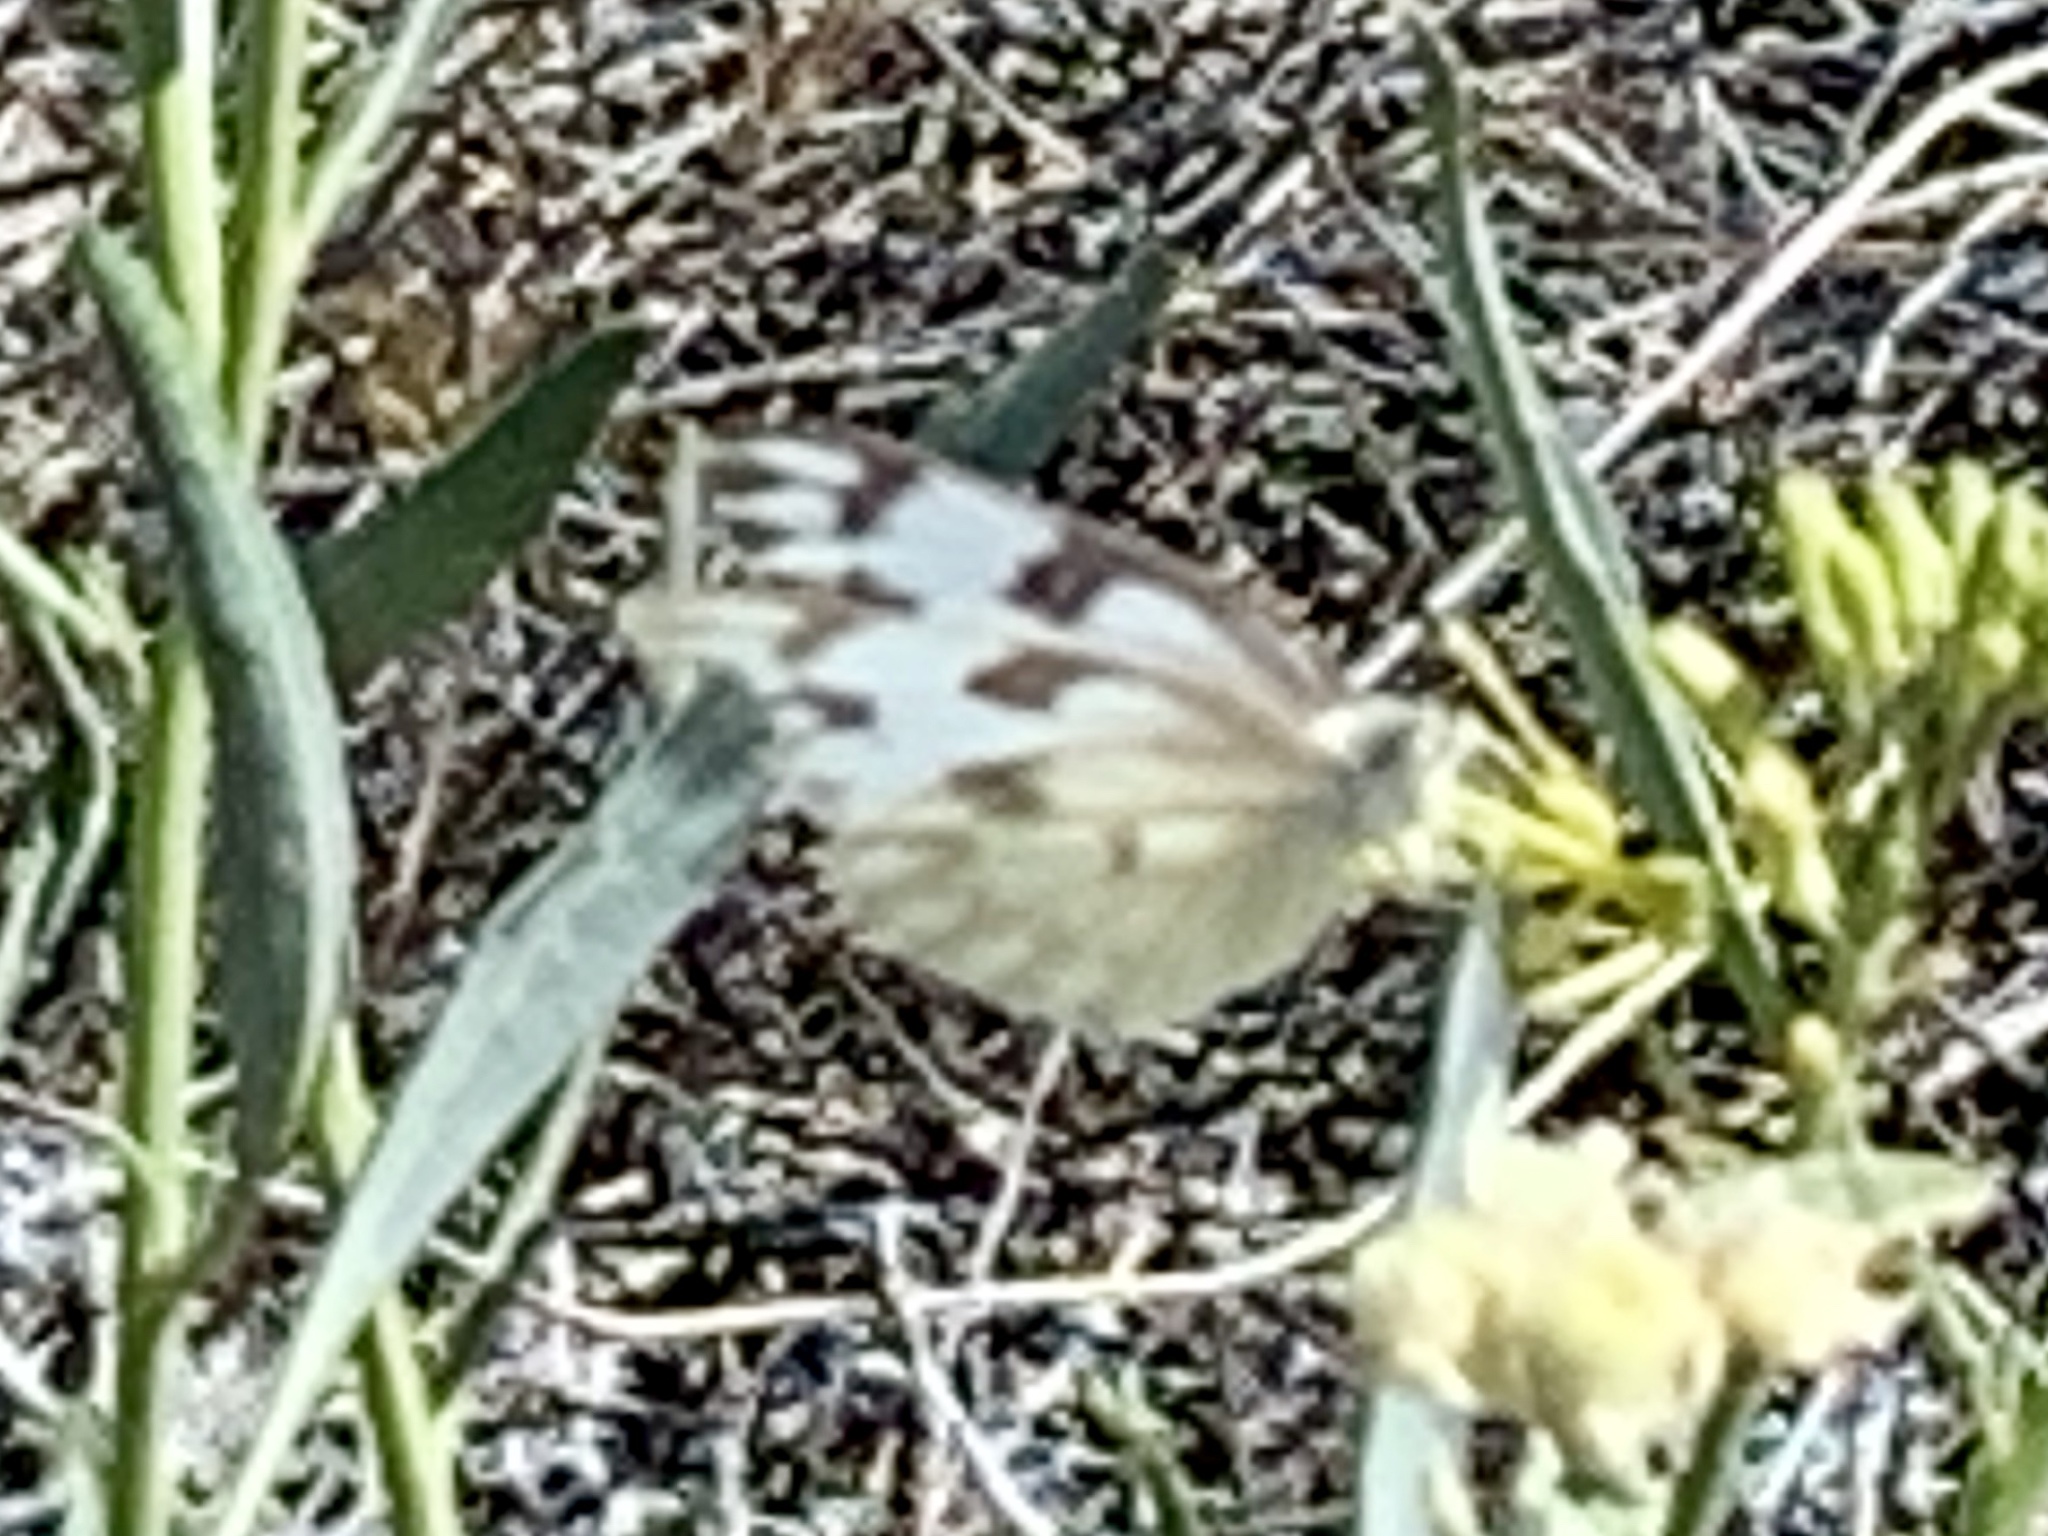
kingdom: Animalia
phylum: Arthropoda
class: Insecta
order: Lepidoptera
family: Pieridae
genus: Pontia
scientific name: Pontia protodice
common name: Checkered white
